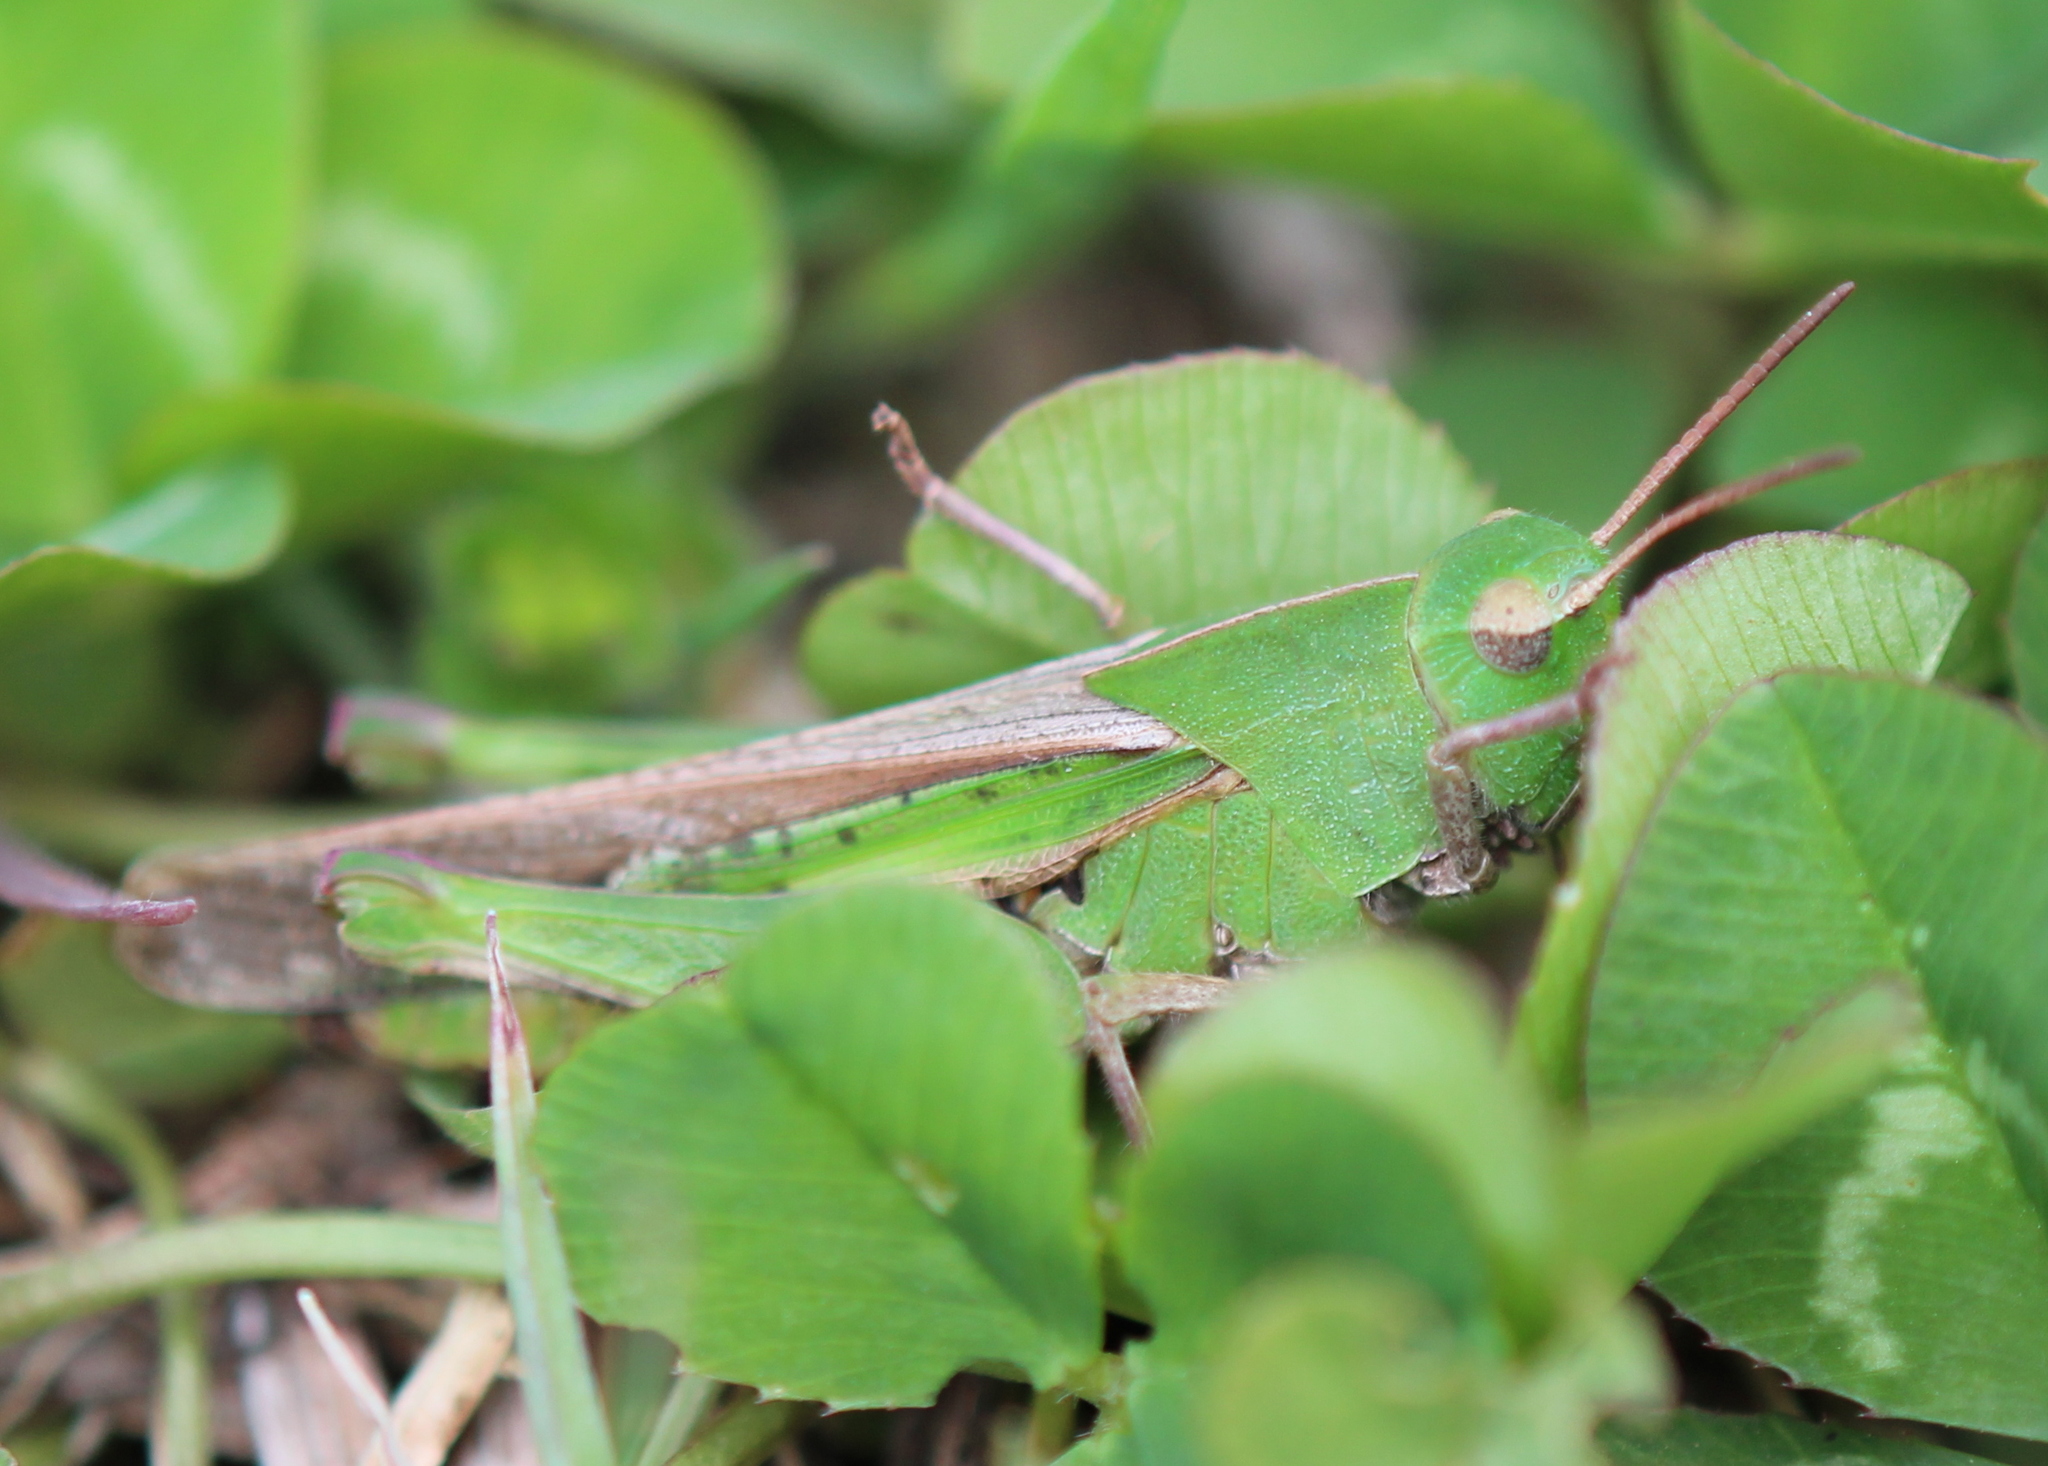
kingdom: Animalia
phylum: Arthropoda
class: Insecta
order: Orthoptera
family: Acrididae
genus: Chortophaga
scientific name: Chortophaga viridifasciata
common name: Green-striped grasshopper
